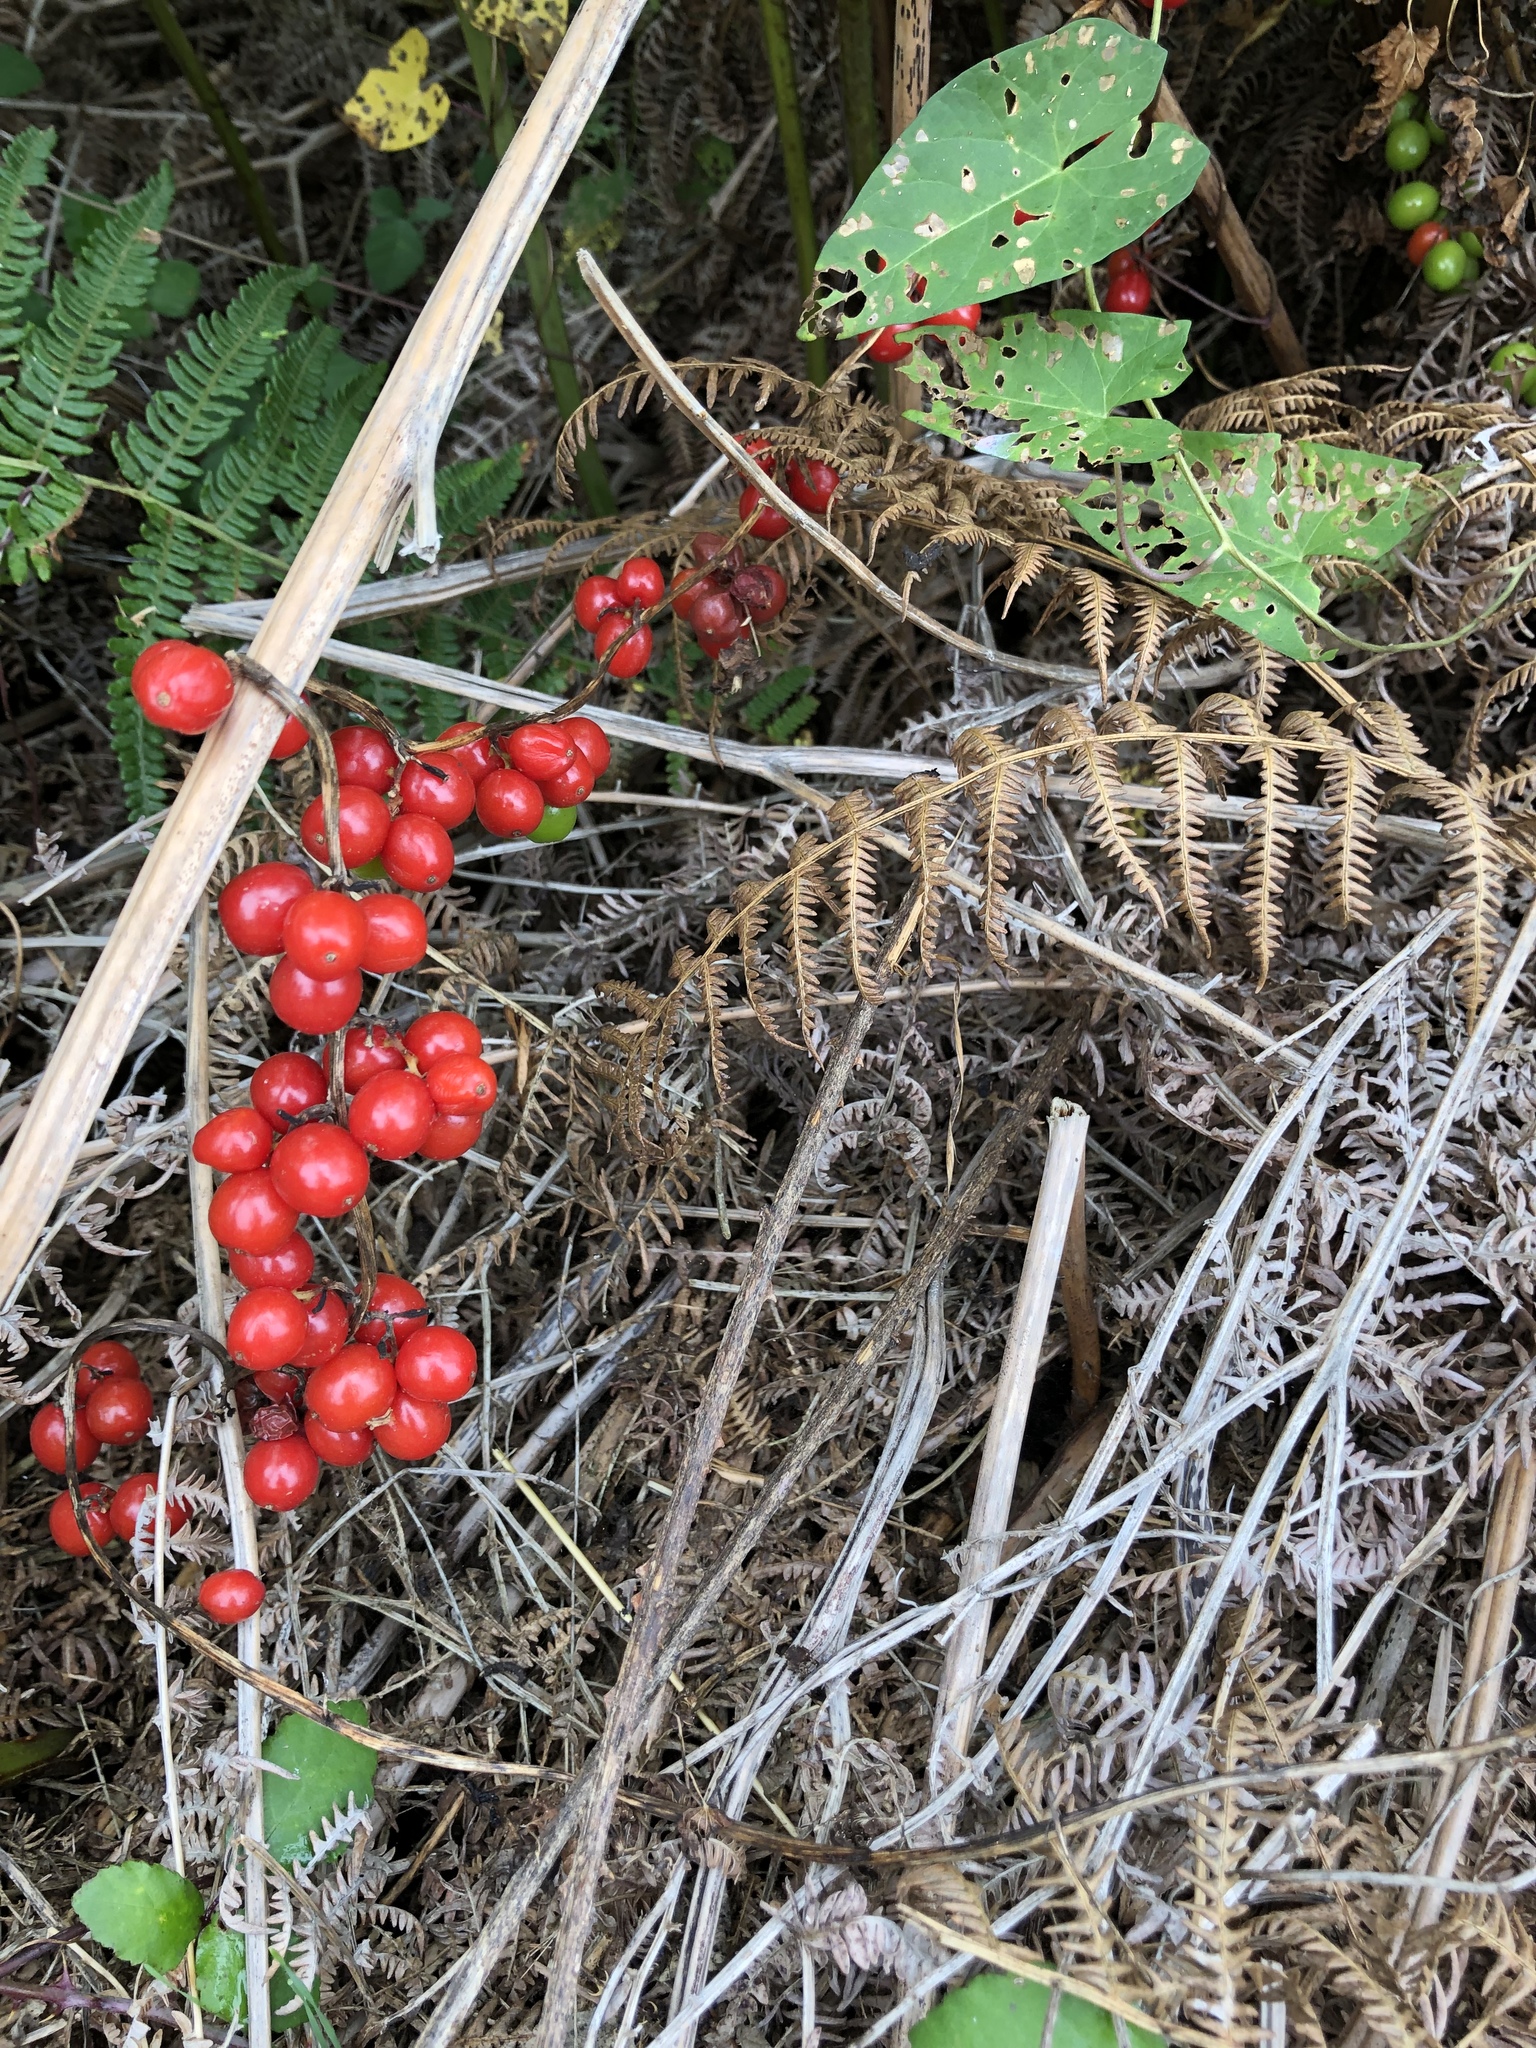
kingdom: Plantae
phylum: Tracheophyta
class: Liliopsida
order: Dioscoreales
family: Dioscoreaceae
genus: Dioscorea
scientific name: Dioscorea communis
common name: Black-bindweed
